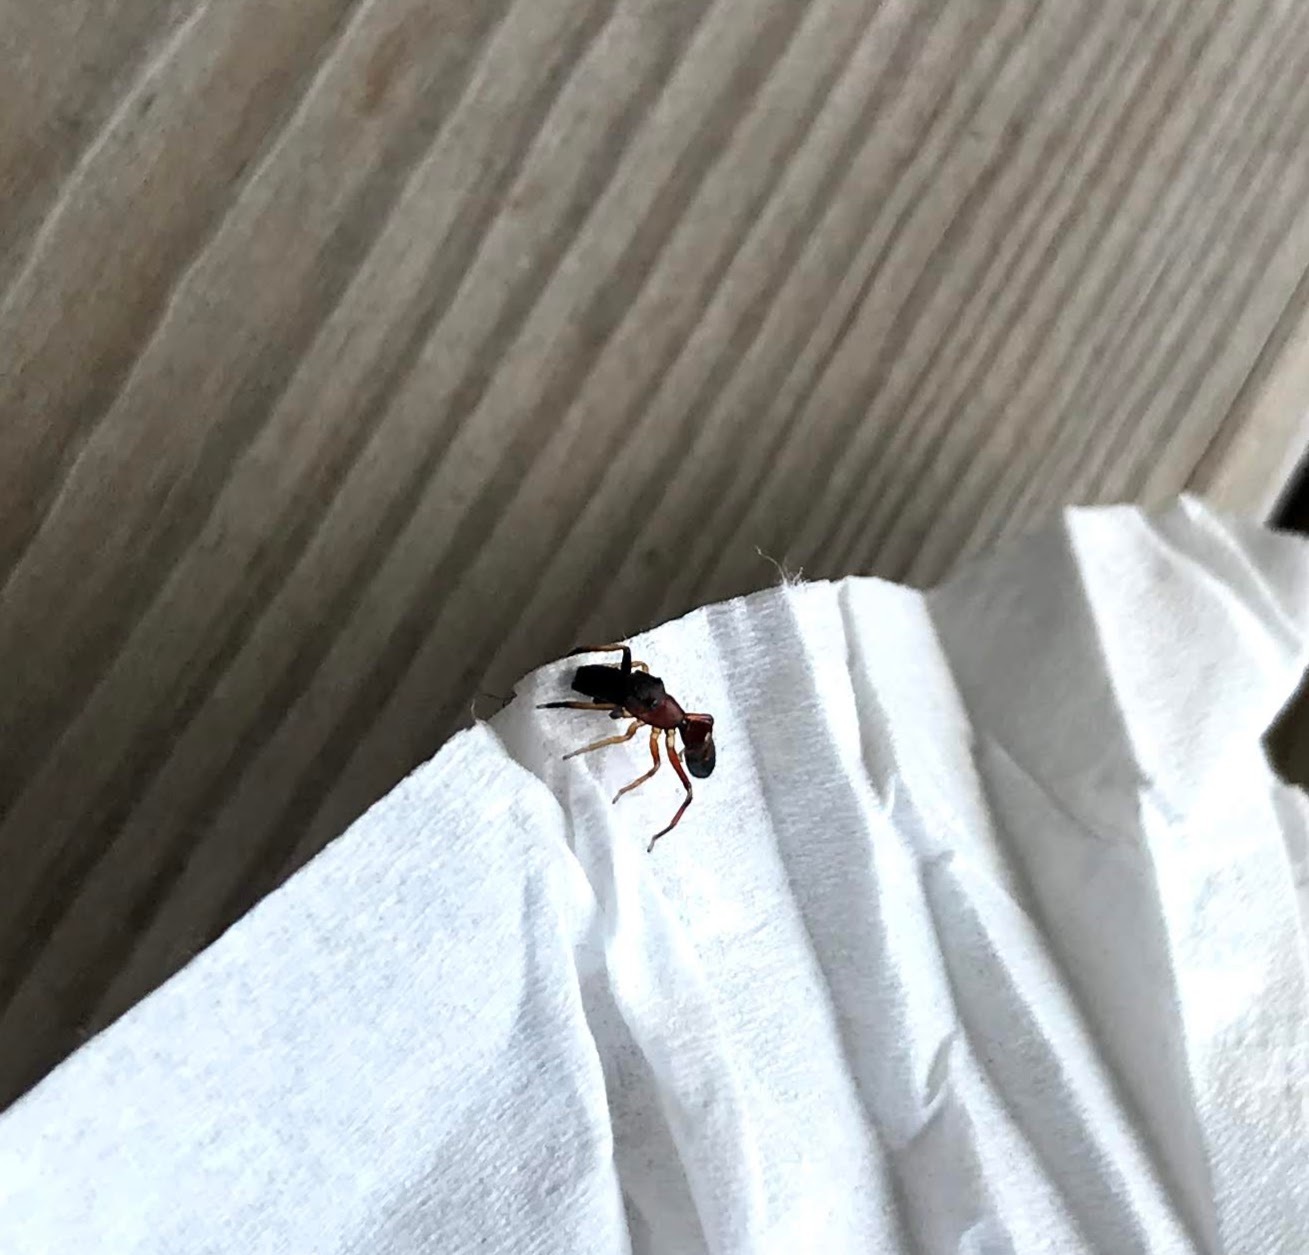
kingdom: Animalia
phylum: Arthropoda
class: Arachnida
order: Araneae
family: Salticidae
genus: Myrmarachne
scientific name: Myrmarachne formicaria
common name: Ant mimic jumping spider
